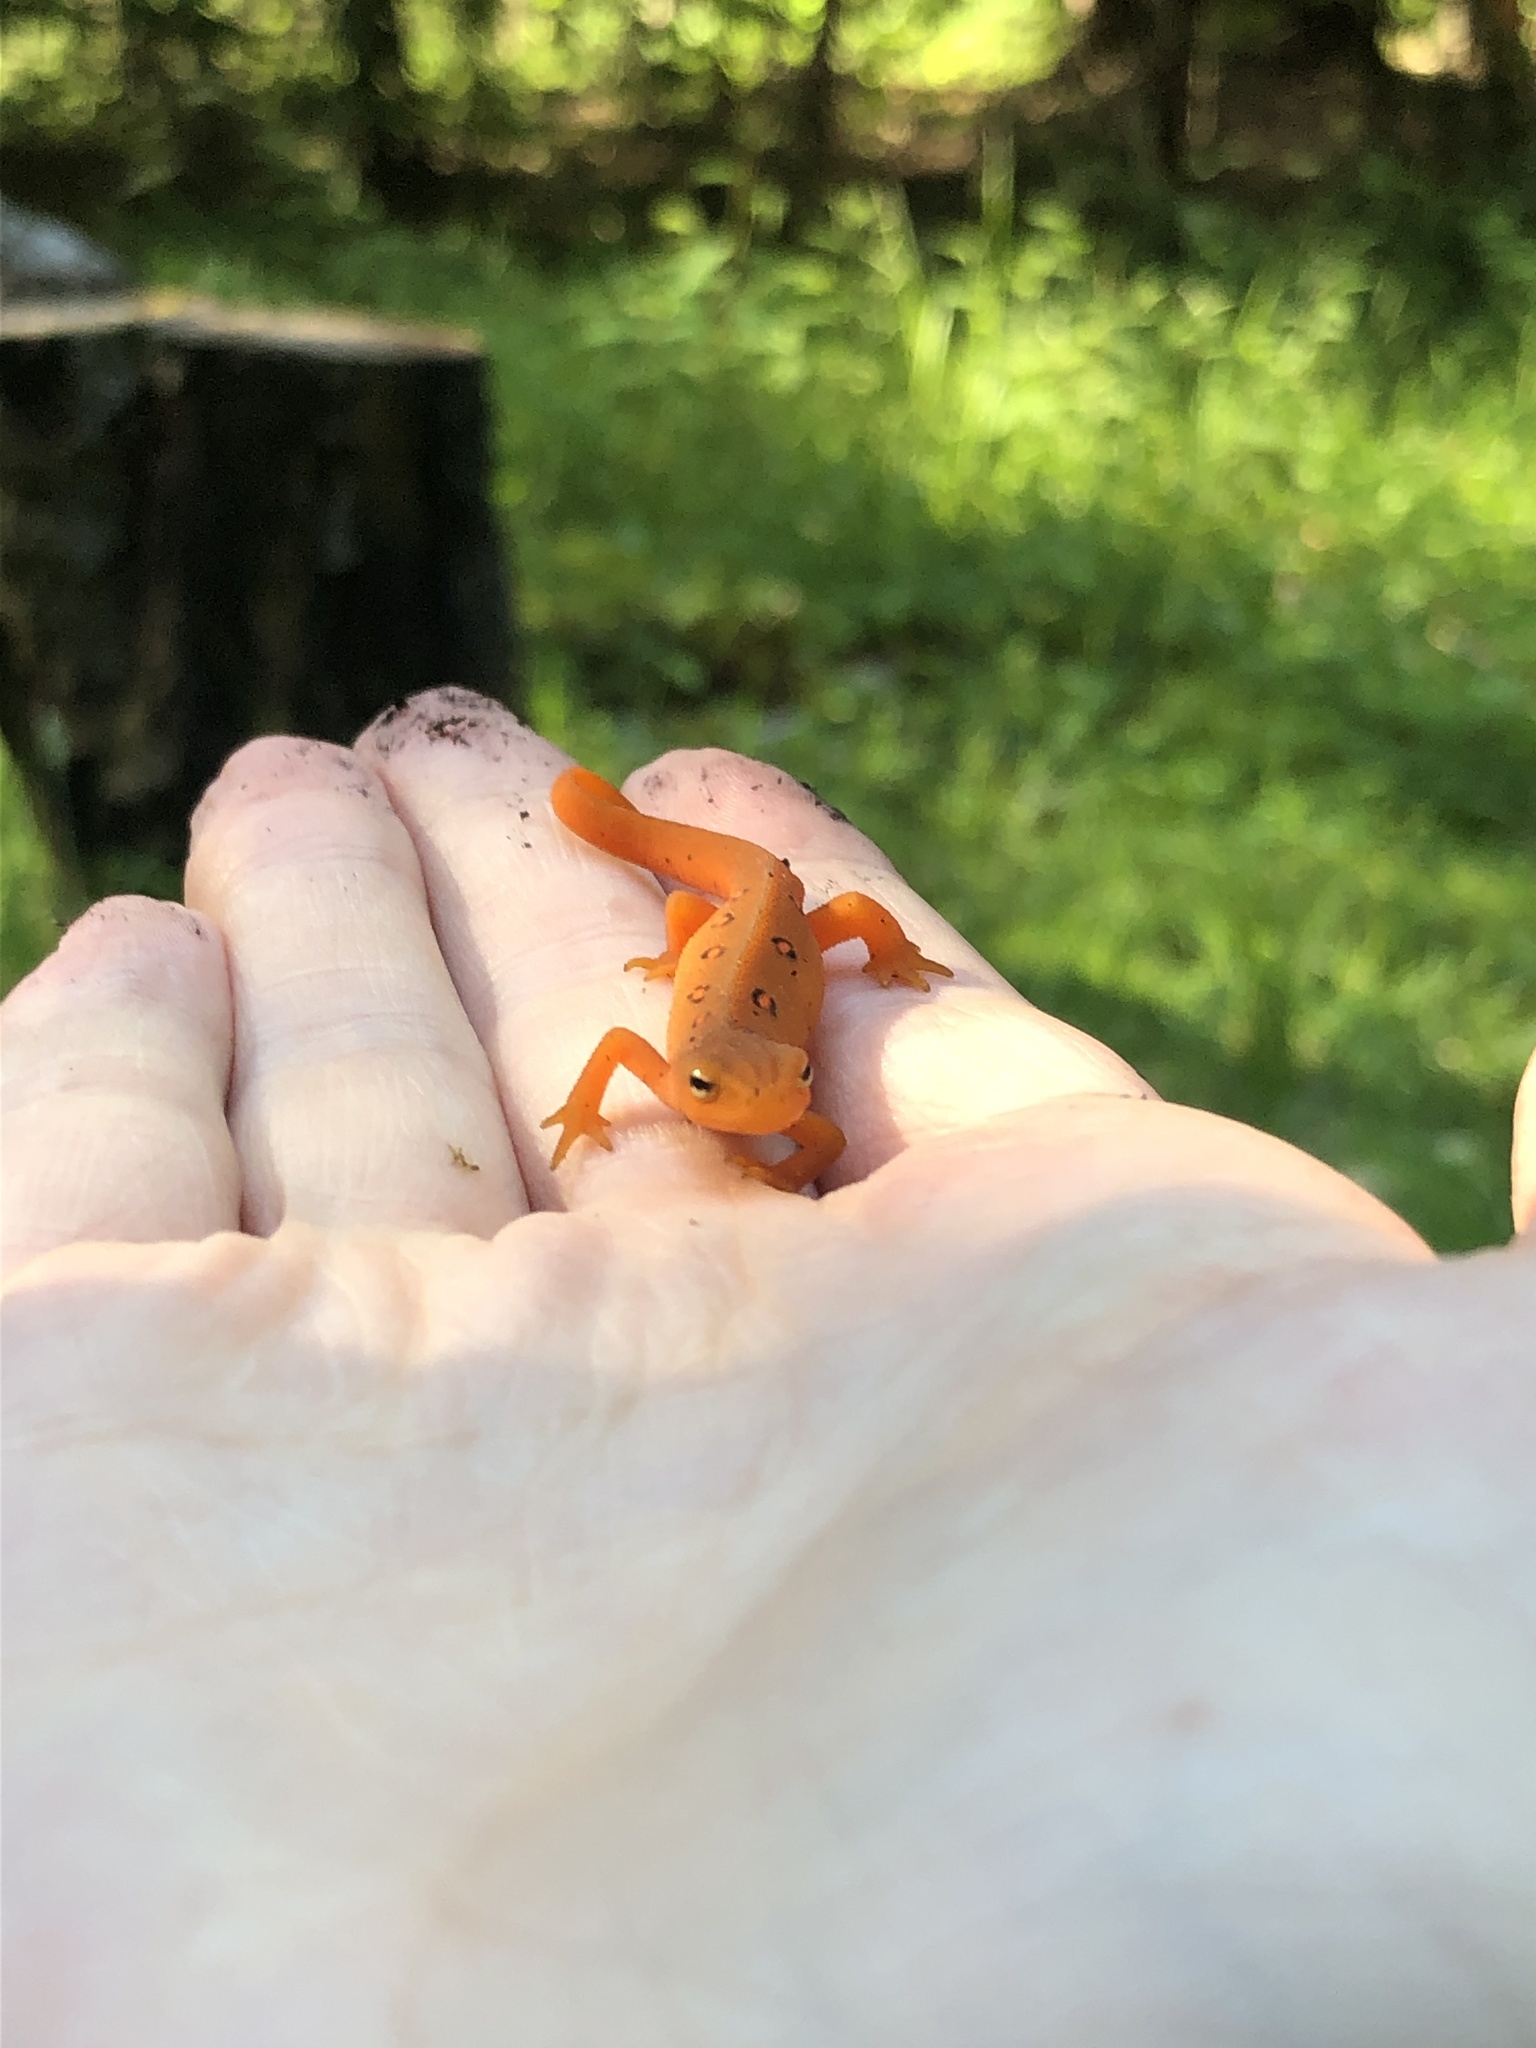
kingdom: Animalia
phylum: Chordata
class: Amphibia
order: Caudata
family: Salamandridae
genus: Notophthalmus
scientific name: Notophthalmus viridescens
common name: Eastern newt
